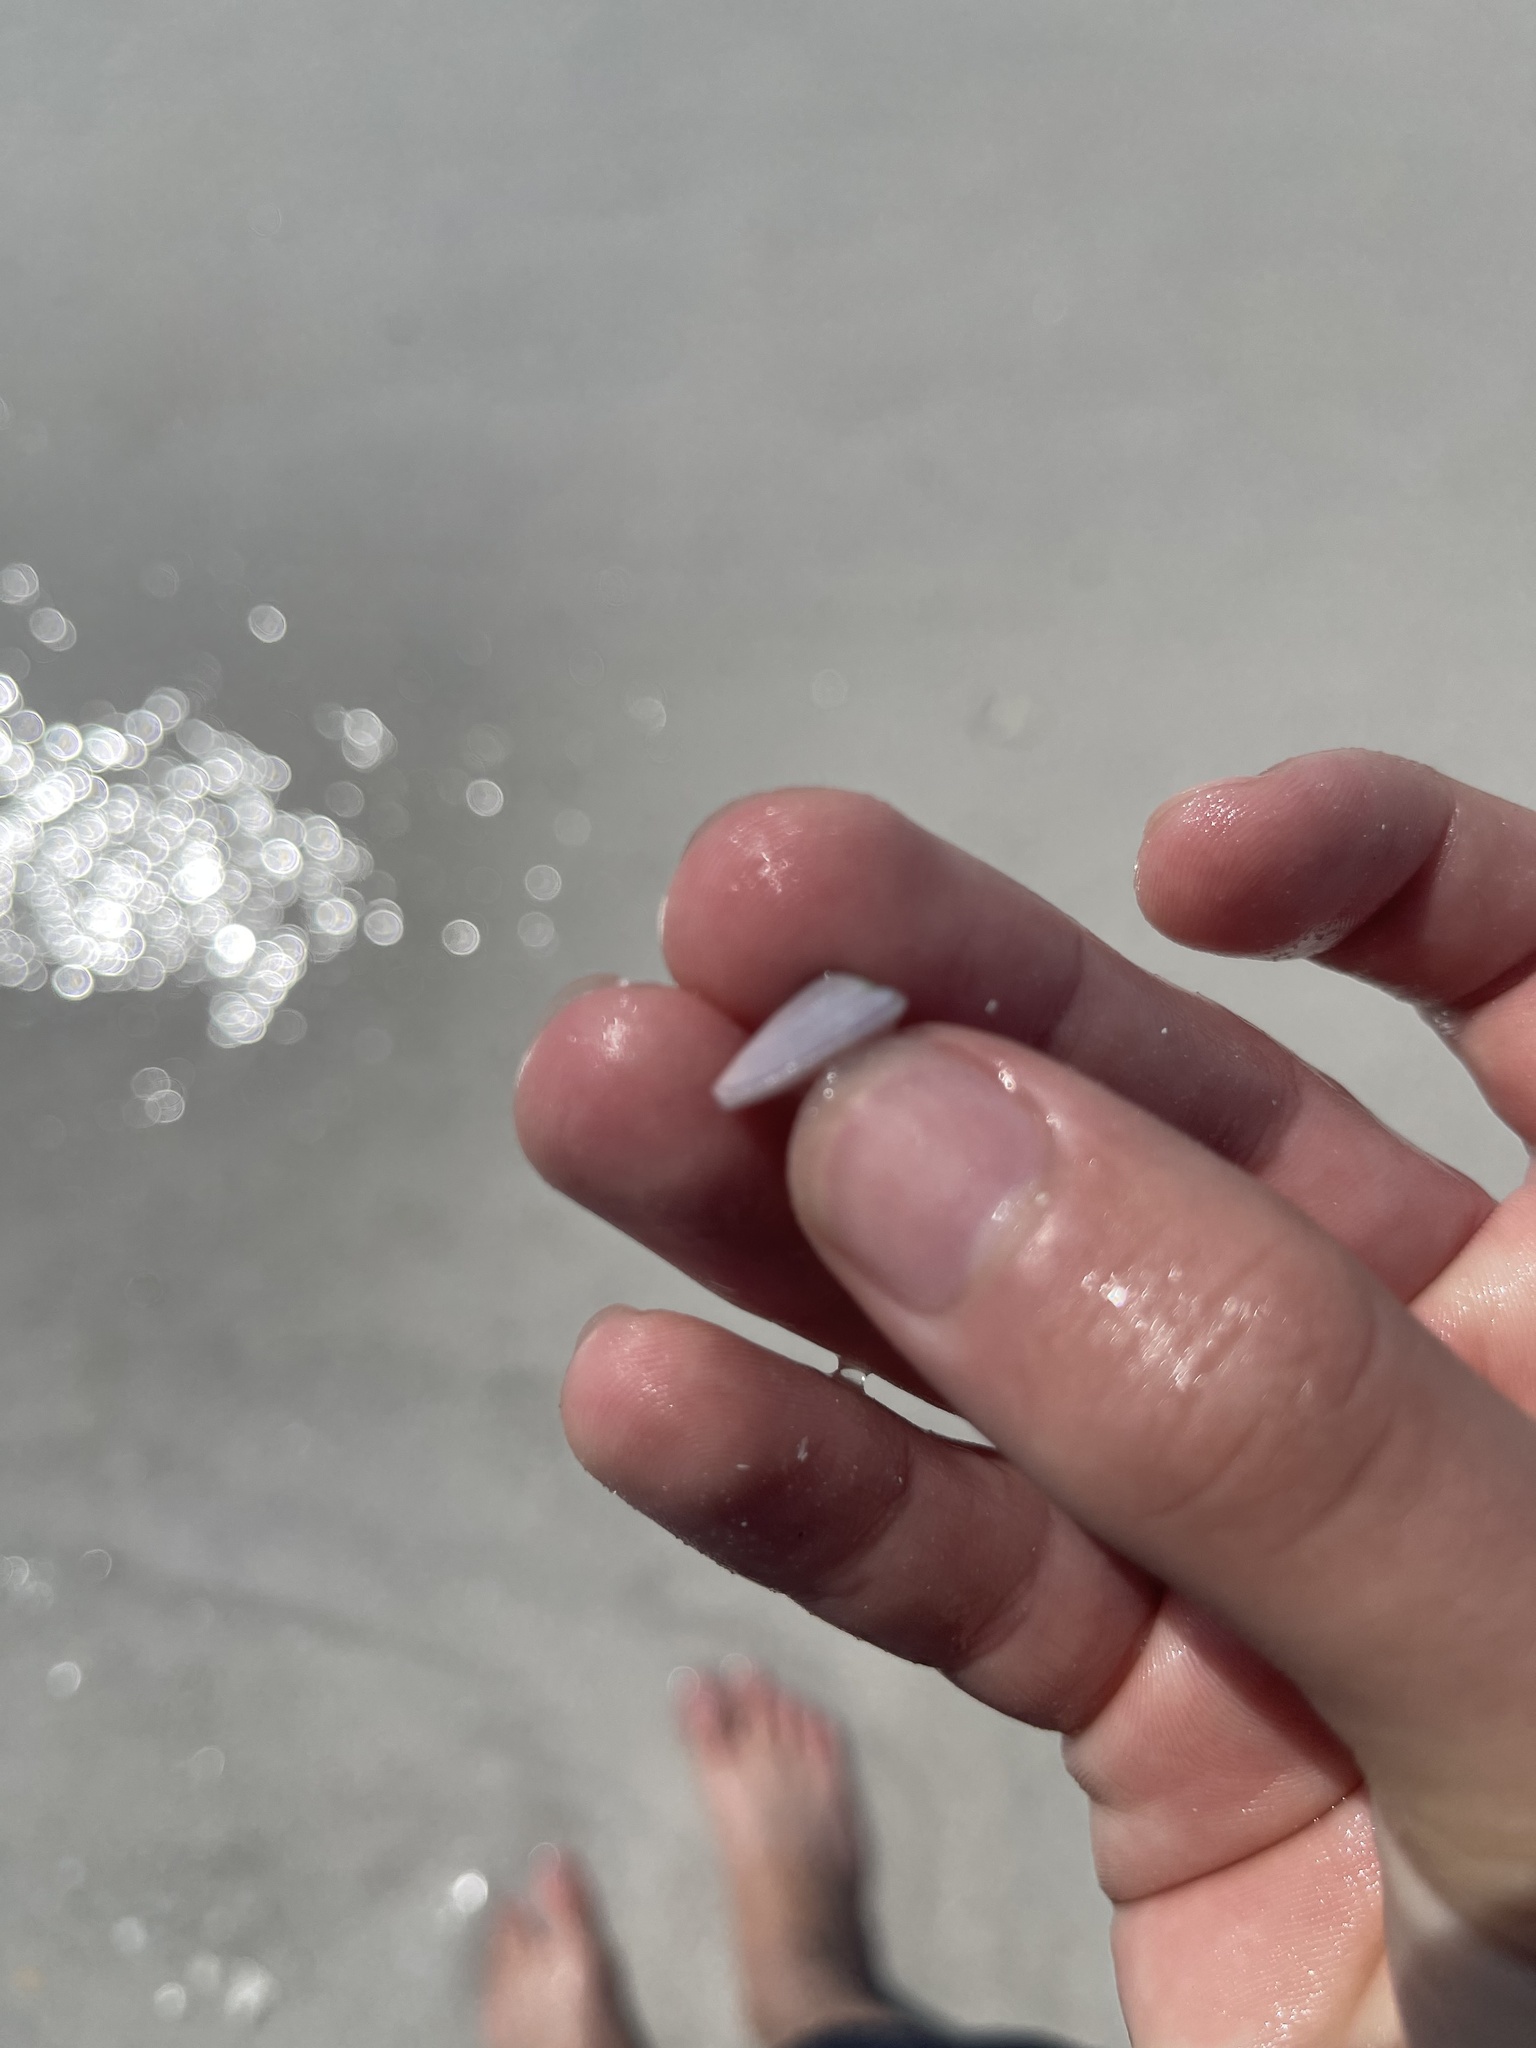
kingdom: Animalia
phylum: Mollusca
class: Bivalvia
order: Cardiida
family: Donacidae
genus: Donax
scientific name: Donax variabilis
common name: Butterfly shell
